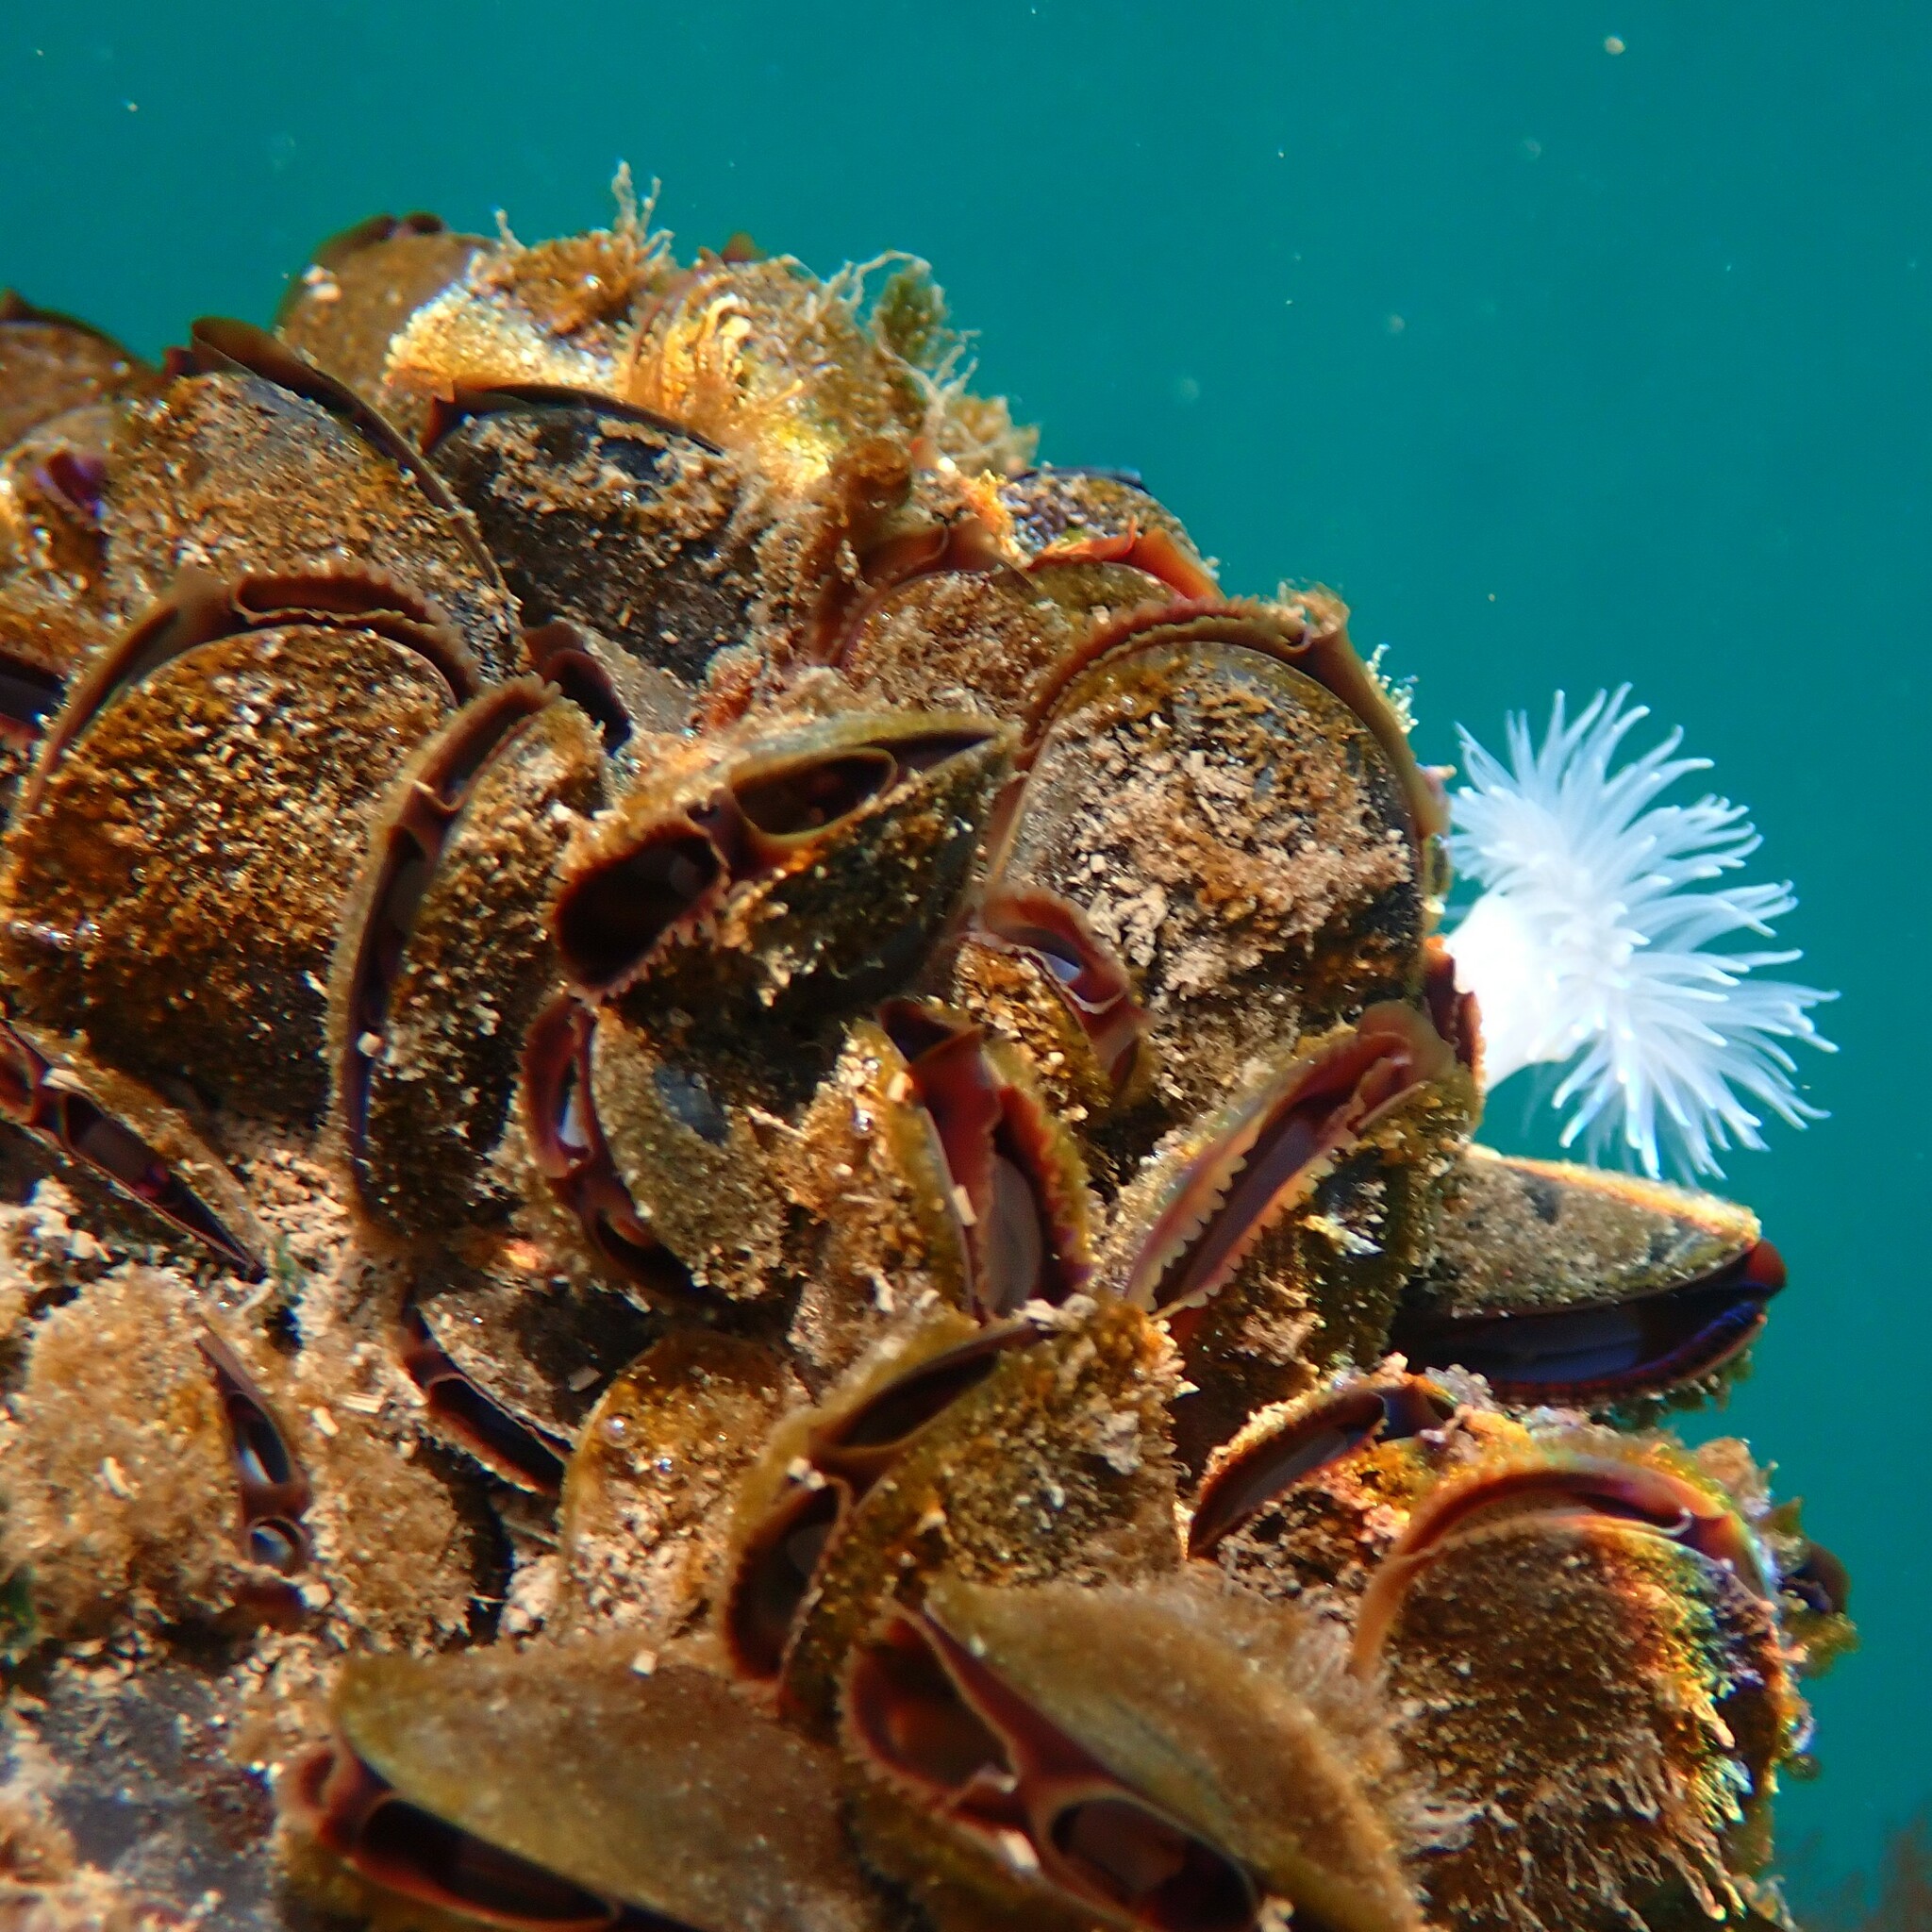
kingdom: Animalia
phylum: Mollusca
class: Bivalvia
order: Mytilida
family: Mytilidae
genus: Mytilus
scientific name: Mytilus
